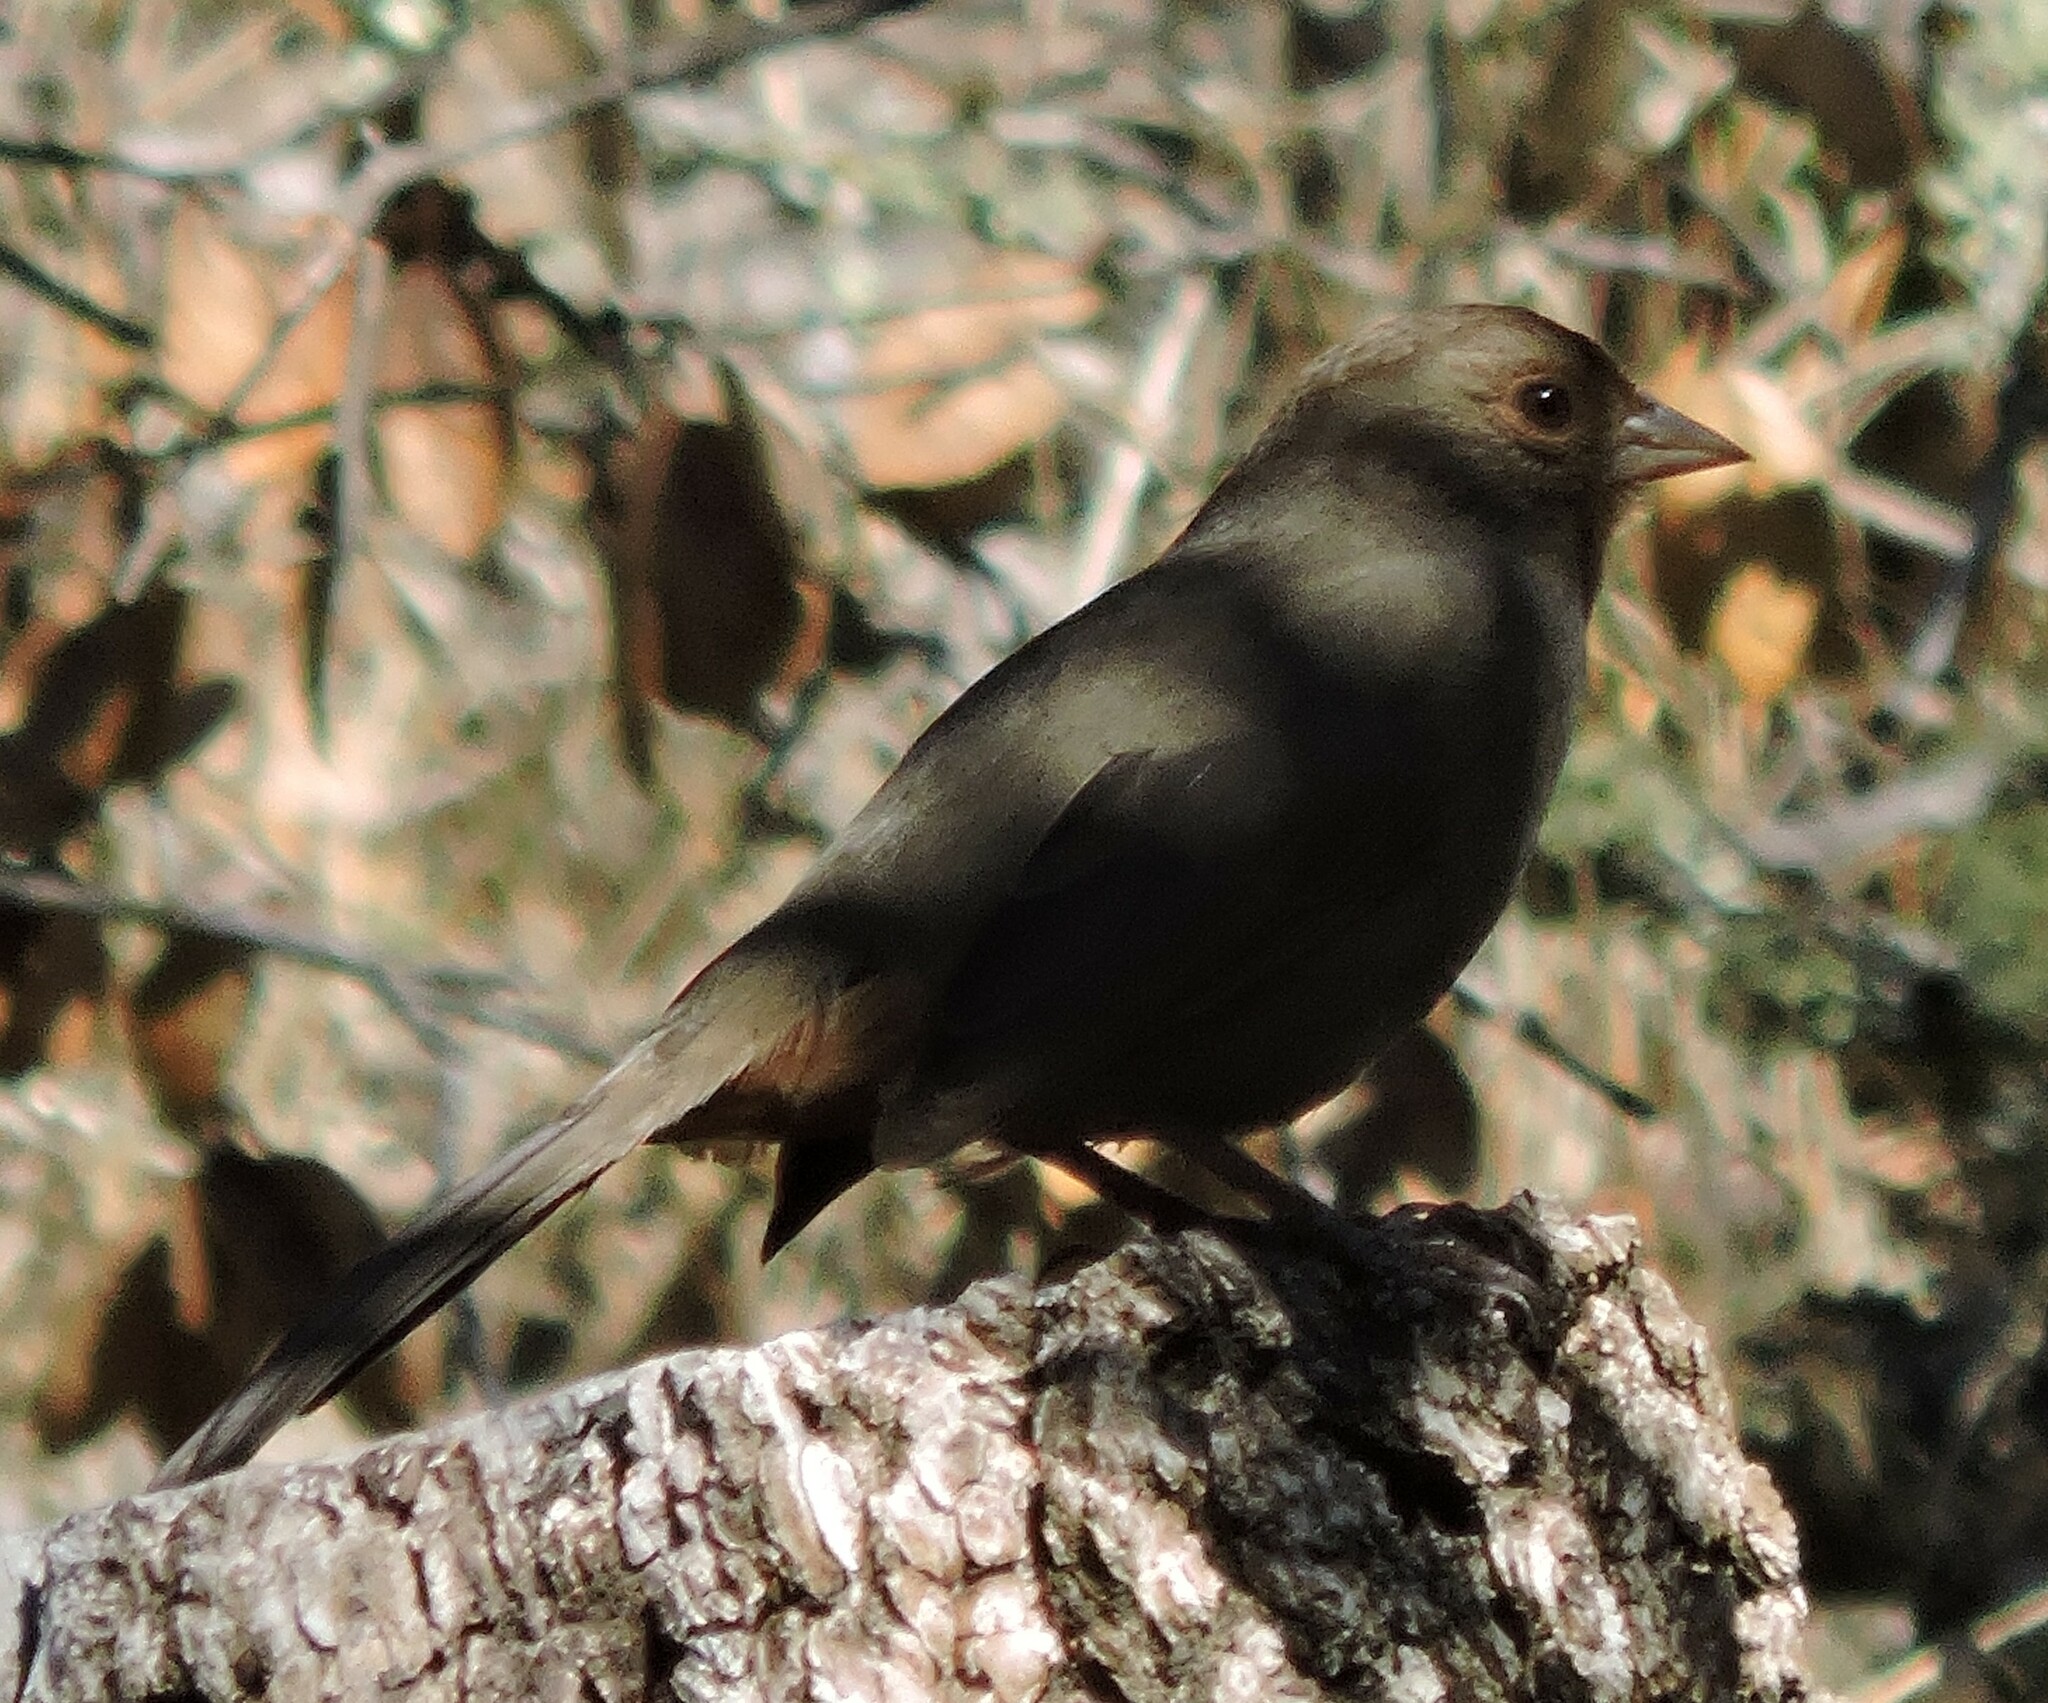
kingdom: Animalia
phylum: Chordata
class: Aves
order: Passeriformes
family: Passerellidae
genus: Melozone
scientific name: Melozone crissalis
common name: California towhee
